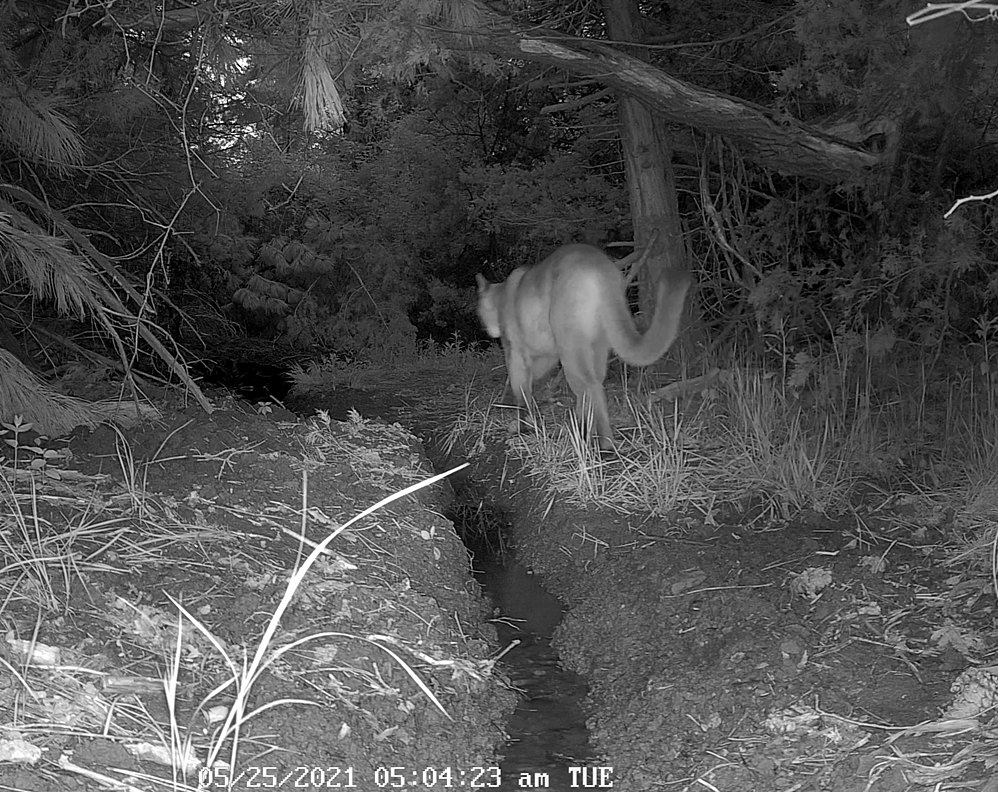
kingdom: Animalia
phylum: Chordata
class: Mammalia
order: Carnivora
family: Felidae
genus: Puma
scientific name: Puma concolor
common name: Puma
